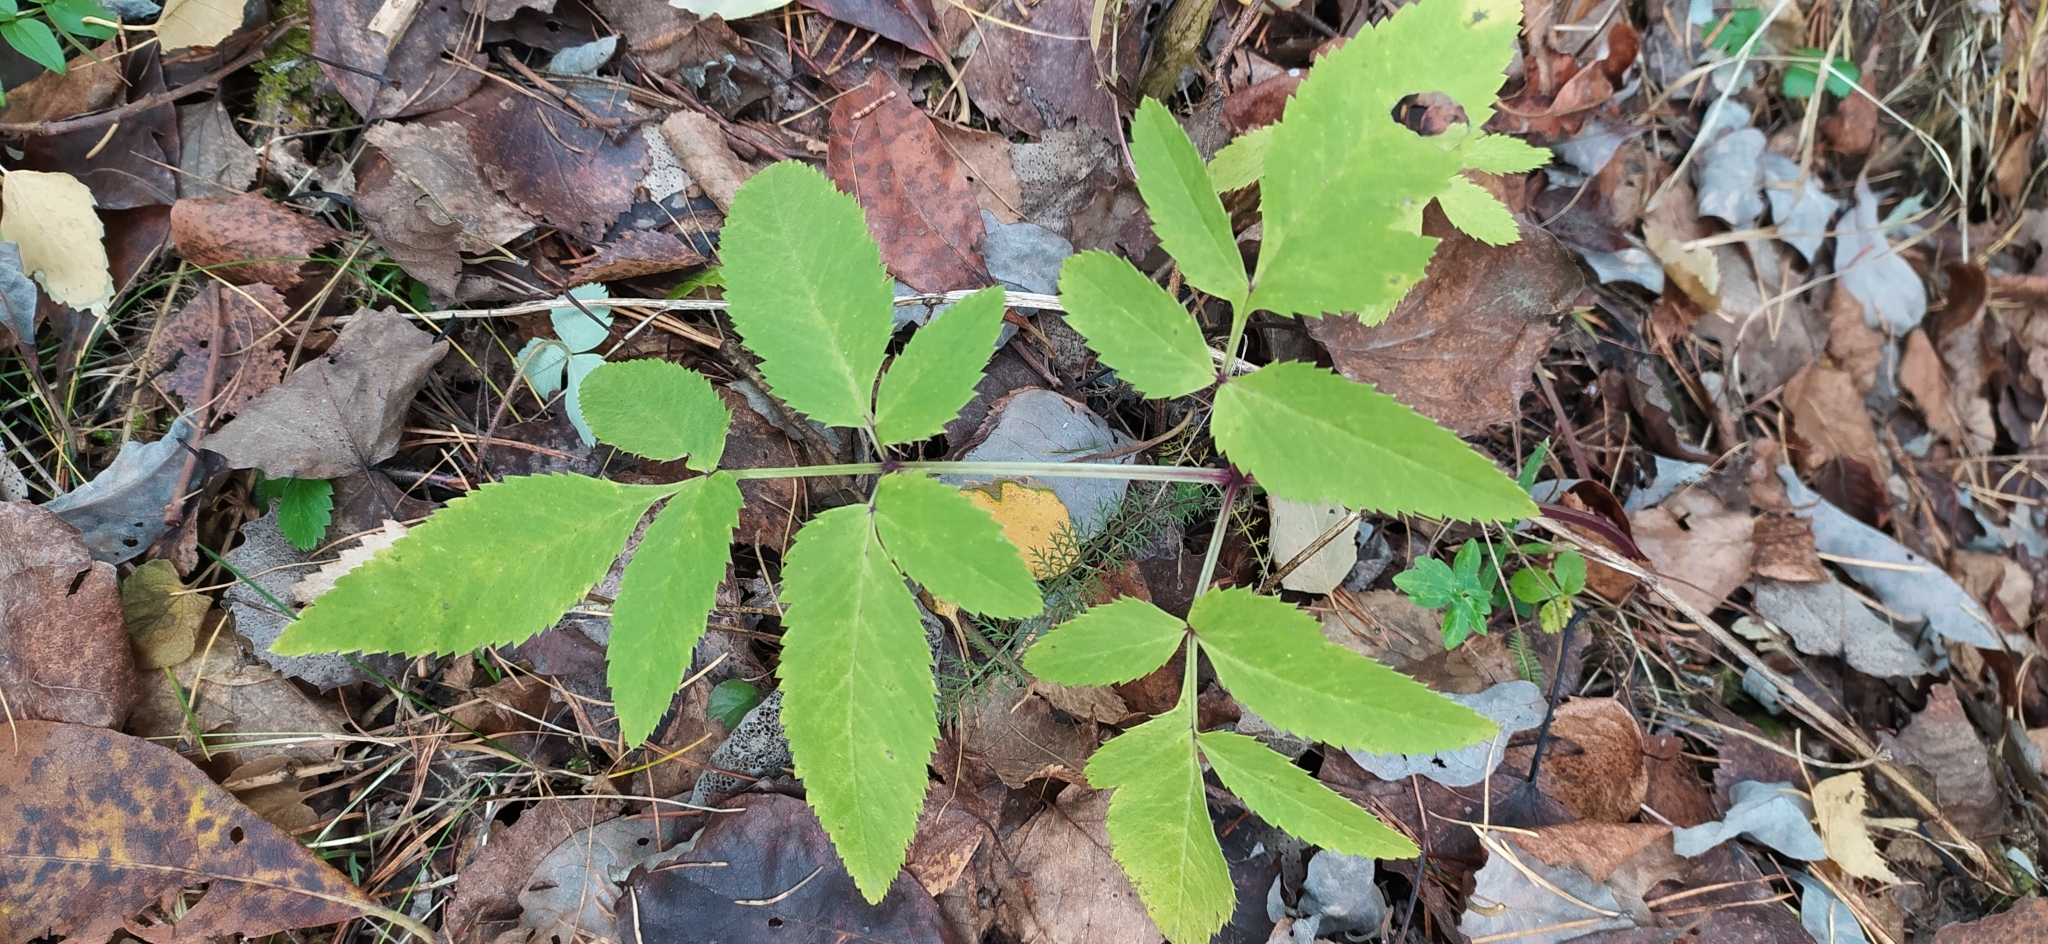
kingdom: Plantae
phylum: Tracheophyta
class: Magnoliopsida
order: Apiales
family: Apiaceae
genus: Angelica
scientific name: Angelica sylvestris
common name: Wild angelica
